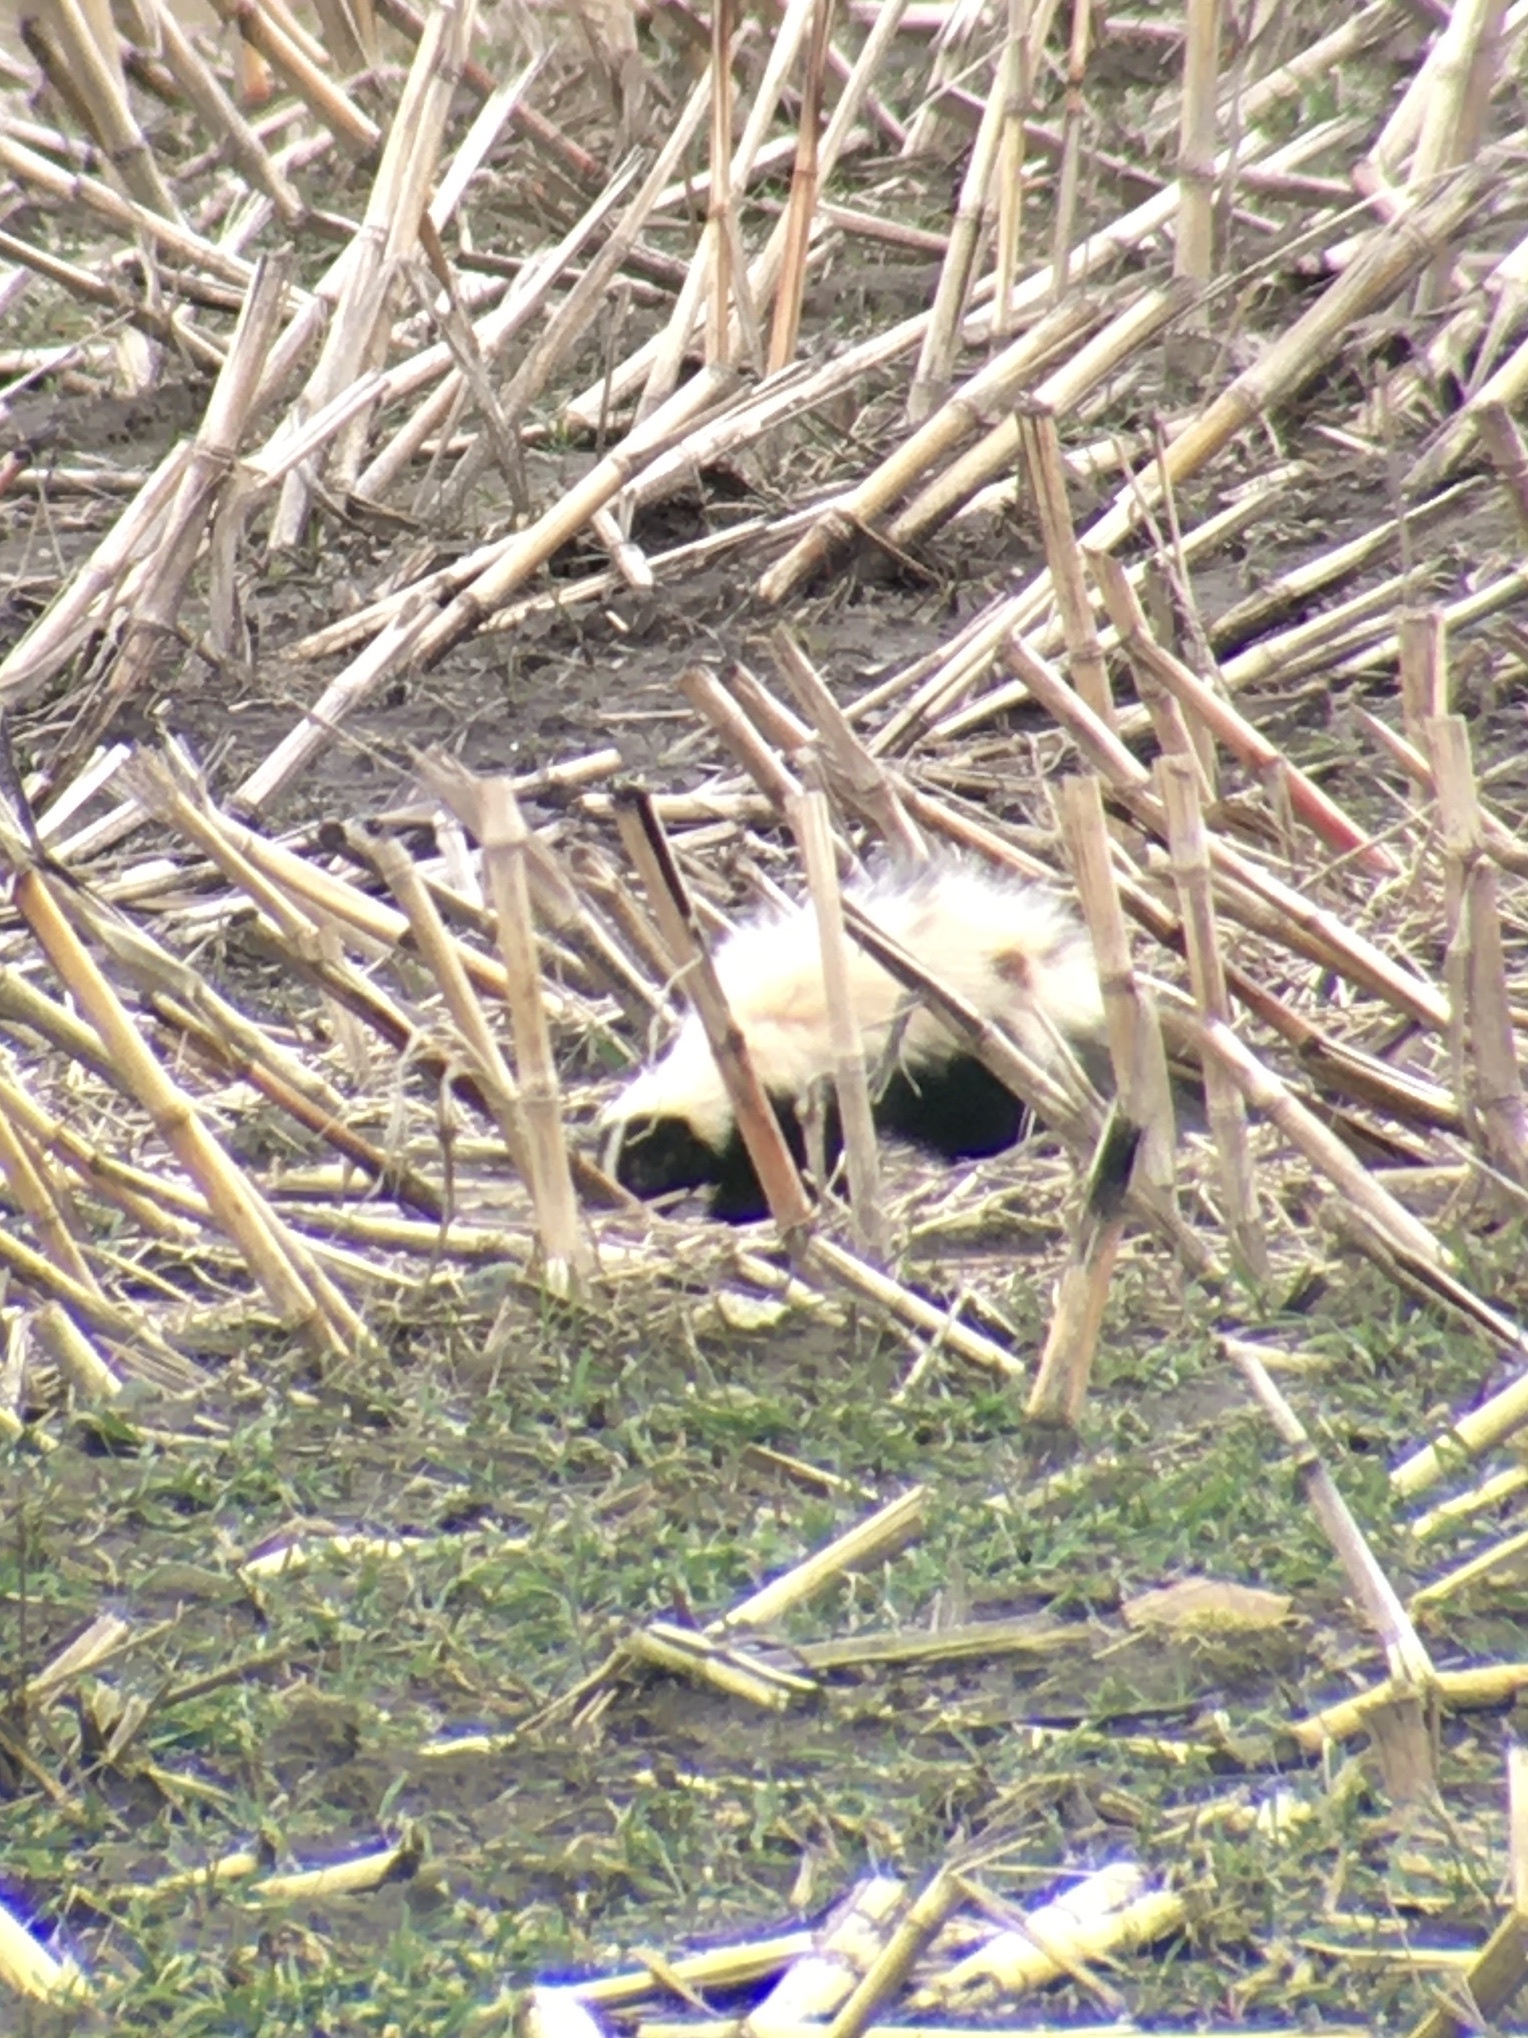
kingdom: Animalia
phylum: Chordata
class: Mammalia
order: Carnivora
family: Mephitidae
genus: Mephitis
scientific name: Mephitis mephitis
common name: Striped skunk
